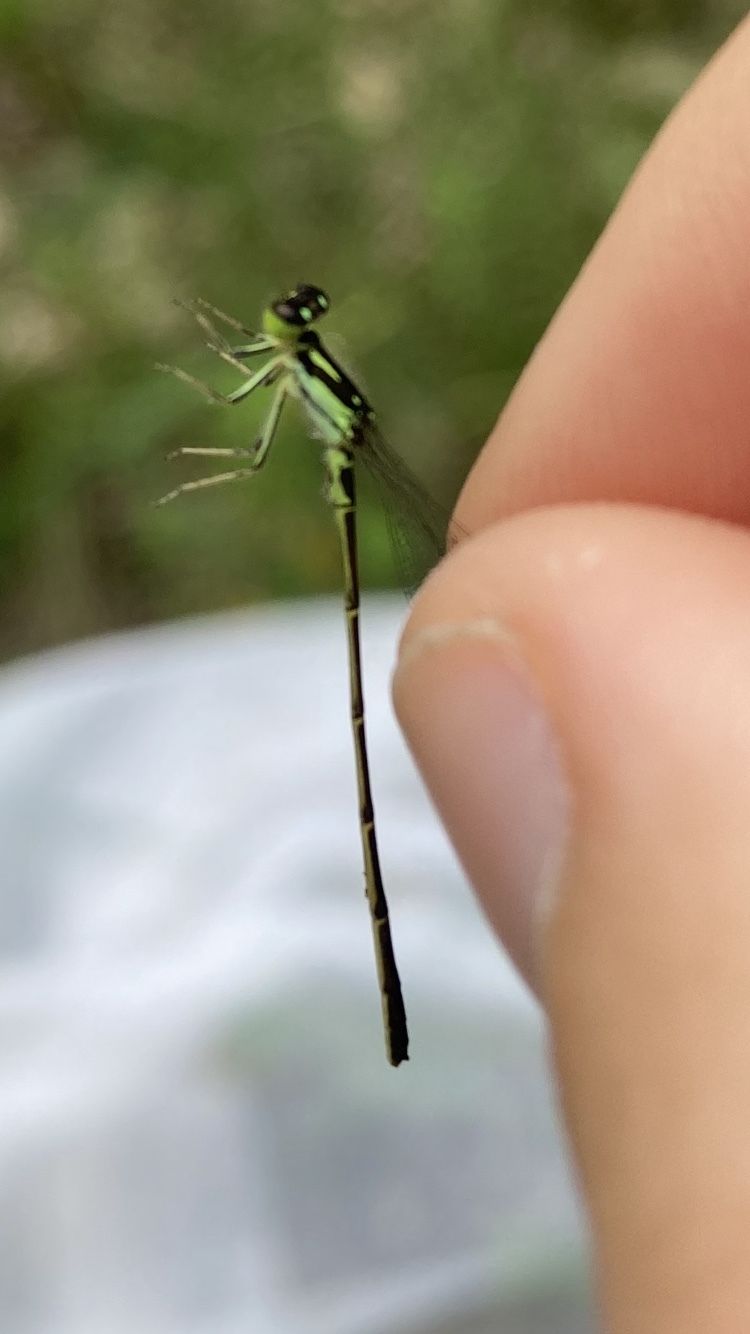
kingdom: Animalia
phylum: Arthropoda
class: Insecta
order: Odonata
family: Coenagrionidae
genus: Ischnura
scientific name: Ischnura posita
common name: Fragile forktail
